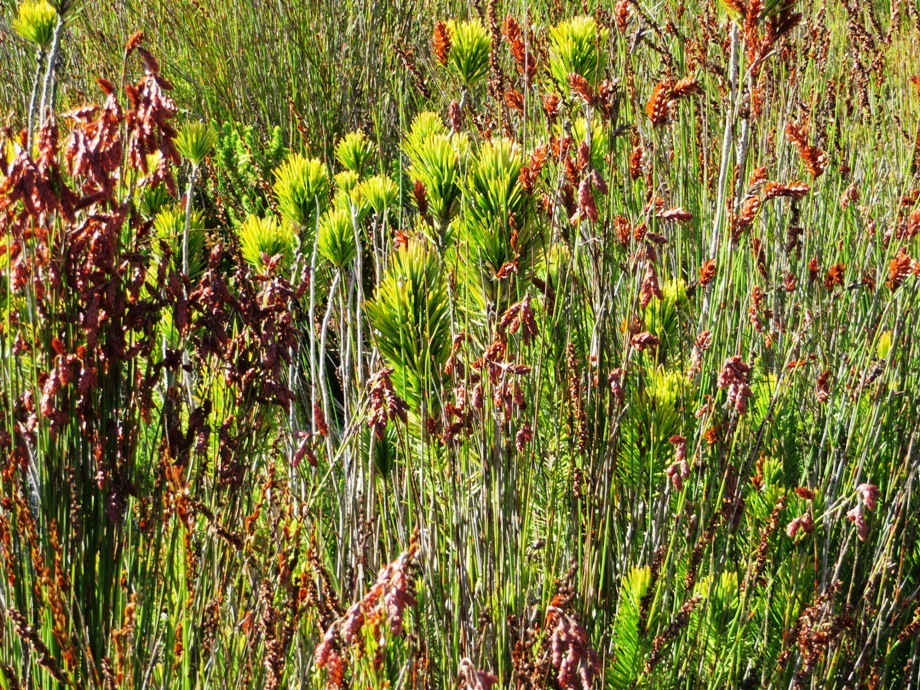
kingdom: Plantae
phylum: Tracheophyta
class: Magnoliopsida
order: Lamiales
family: Stilbaceae
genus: Retzia
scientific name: Retzia capensis
